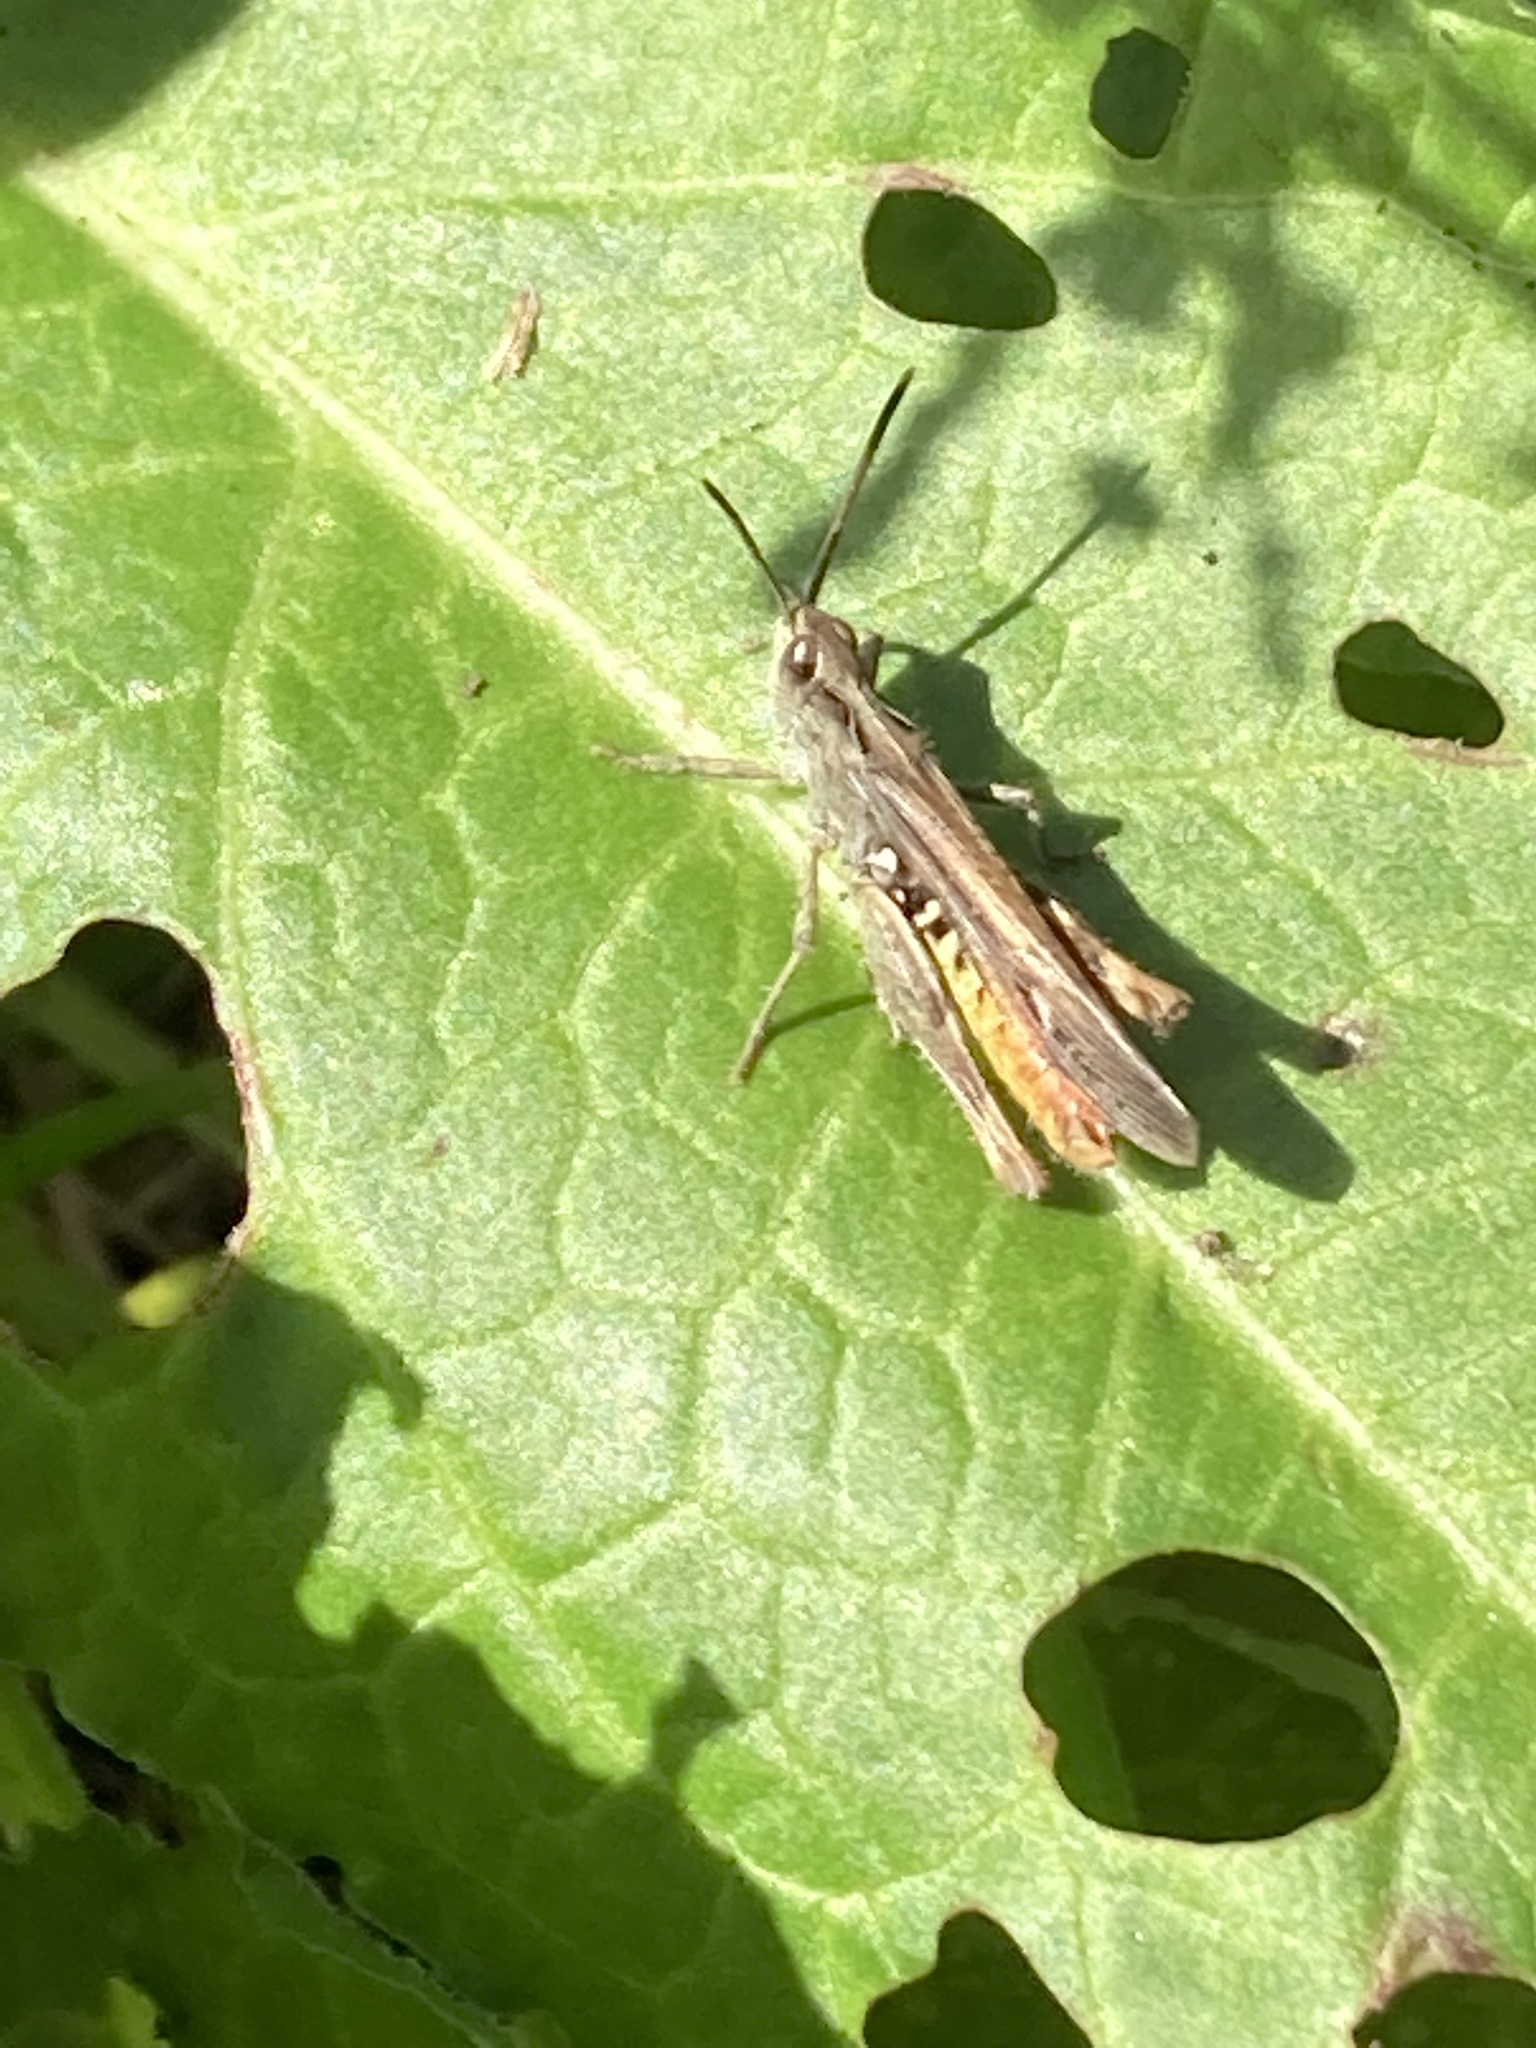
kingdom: Animalia
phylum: Arthropoda
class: Insecta
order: Orthoptera
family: Acrididae
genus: Chorthippus
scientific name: Chorthippus brunneus
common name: Field grasshopper
